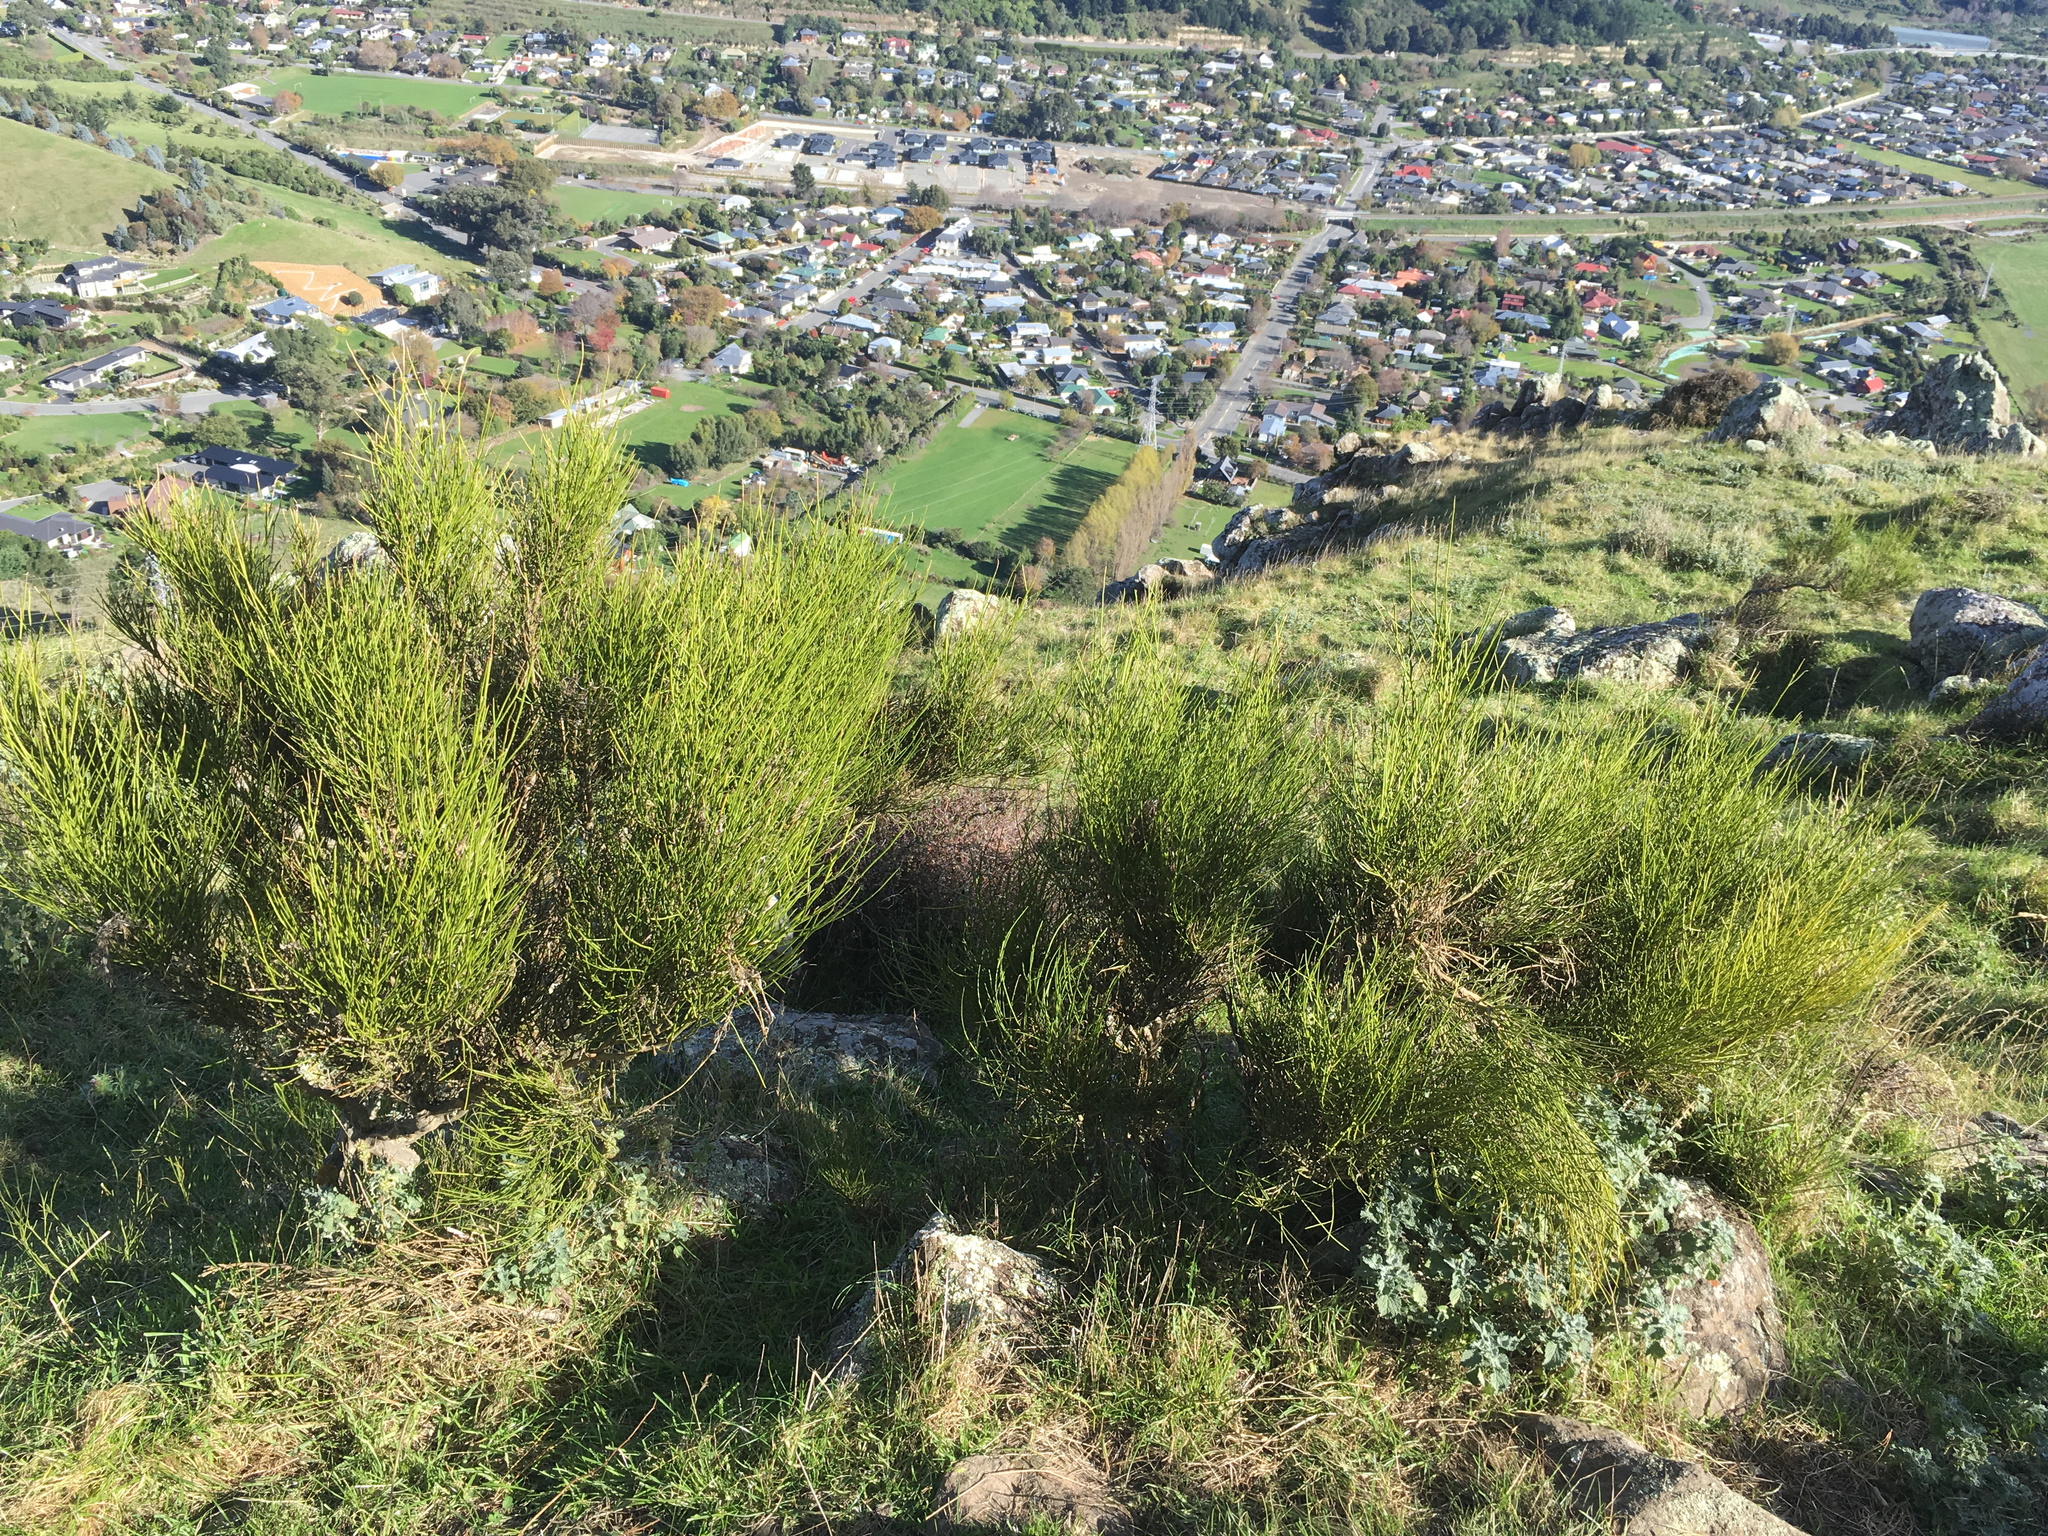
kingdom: Plantae
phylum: Tracheophyta
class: Magnoliopsida
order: Fabales
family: Fabaceae
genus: Carmichaelia
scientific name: Carmichaelia australis
